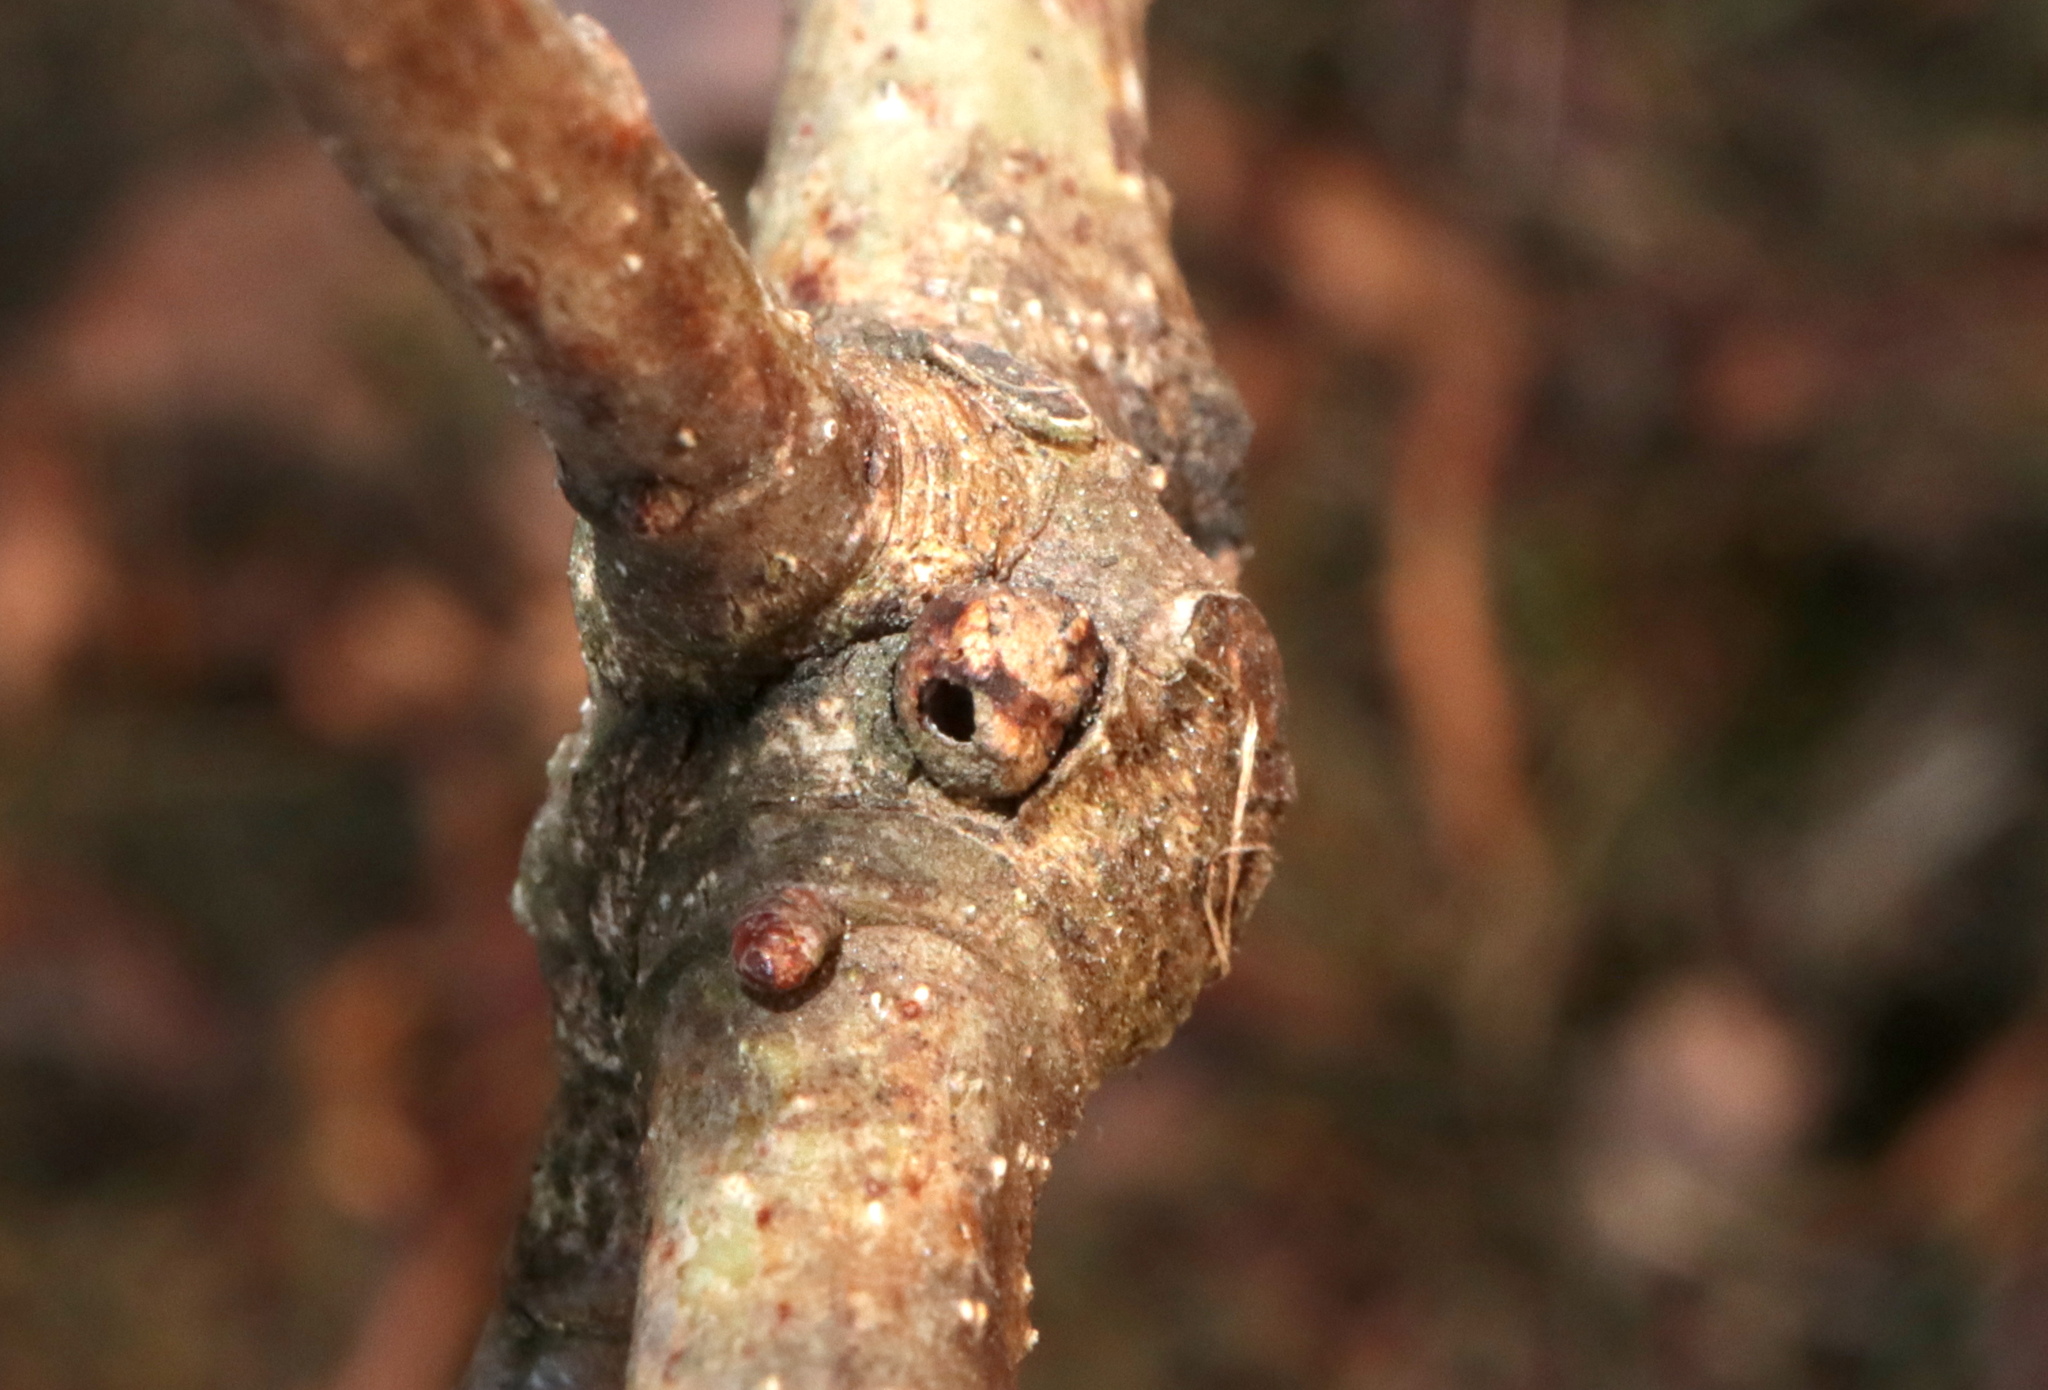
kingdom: Animalia
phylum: Arthropoda
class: Insecta
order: Hymenoptera
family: Cynipidae
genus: Andricus
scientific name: Andricus
